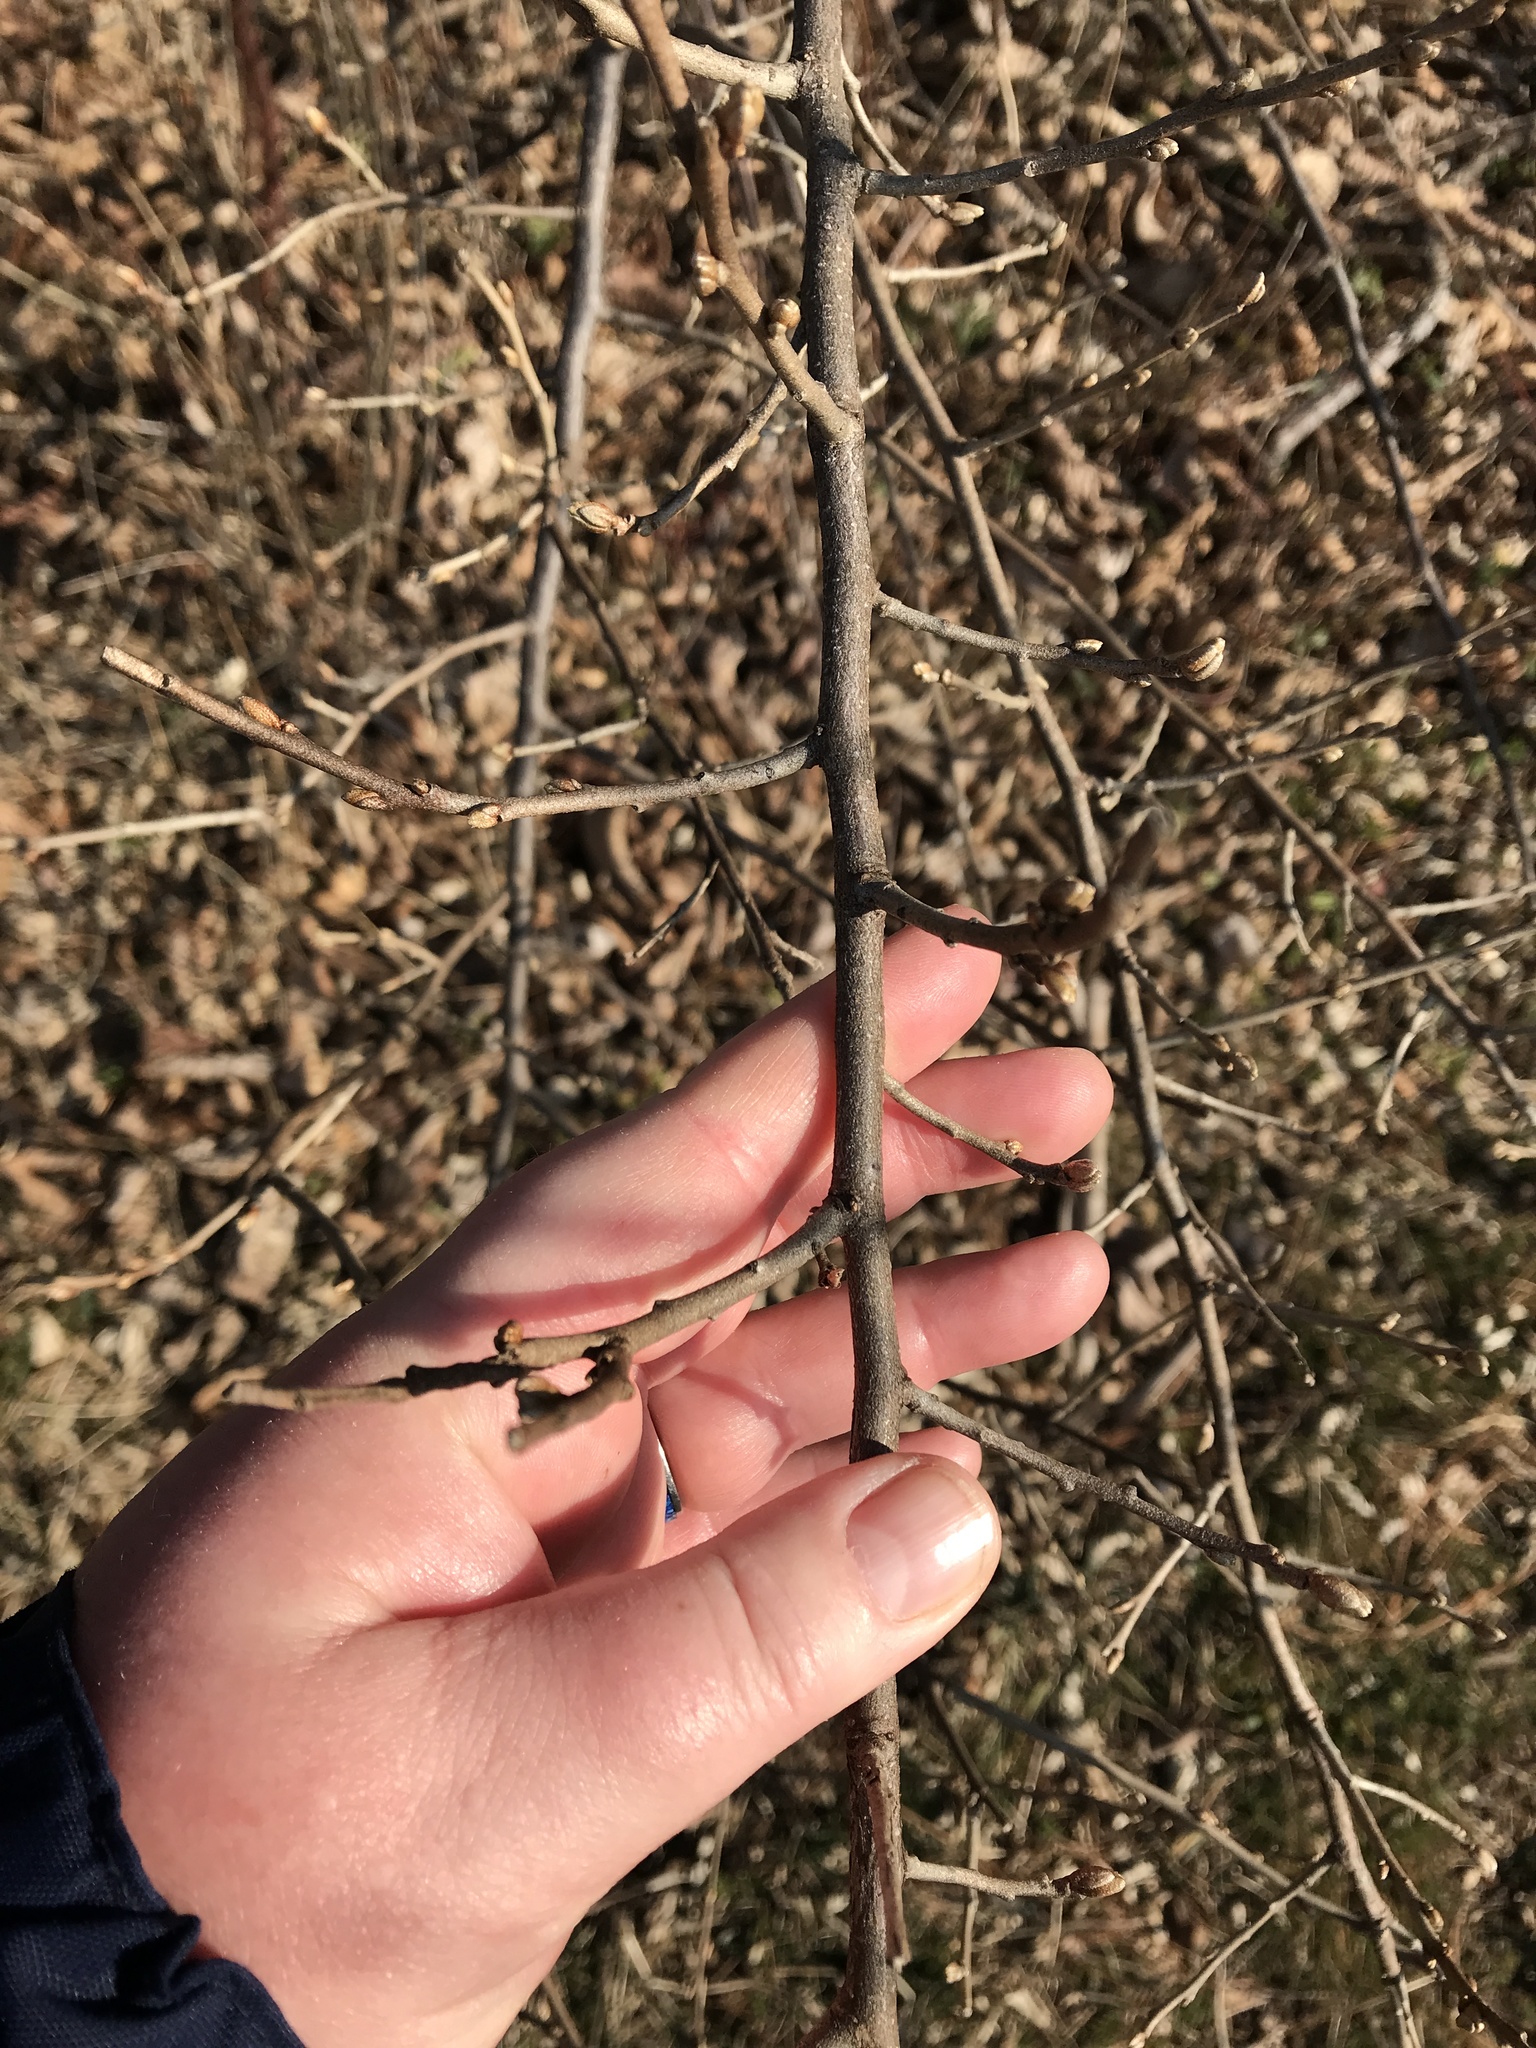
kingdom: Plantae
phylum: Tracheophyta
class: Magnoliopsida
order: Rosales
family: Elaeagnaceae
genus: Elaeagnus
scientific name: Elaeagnus umbellata
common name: Autumn olive
